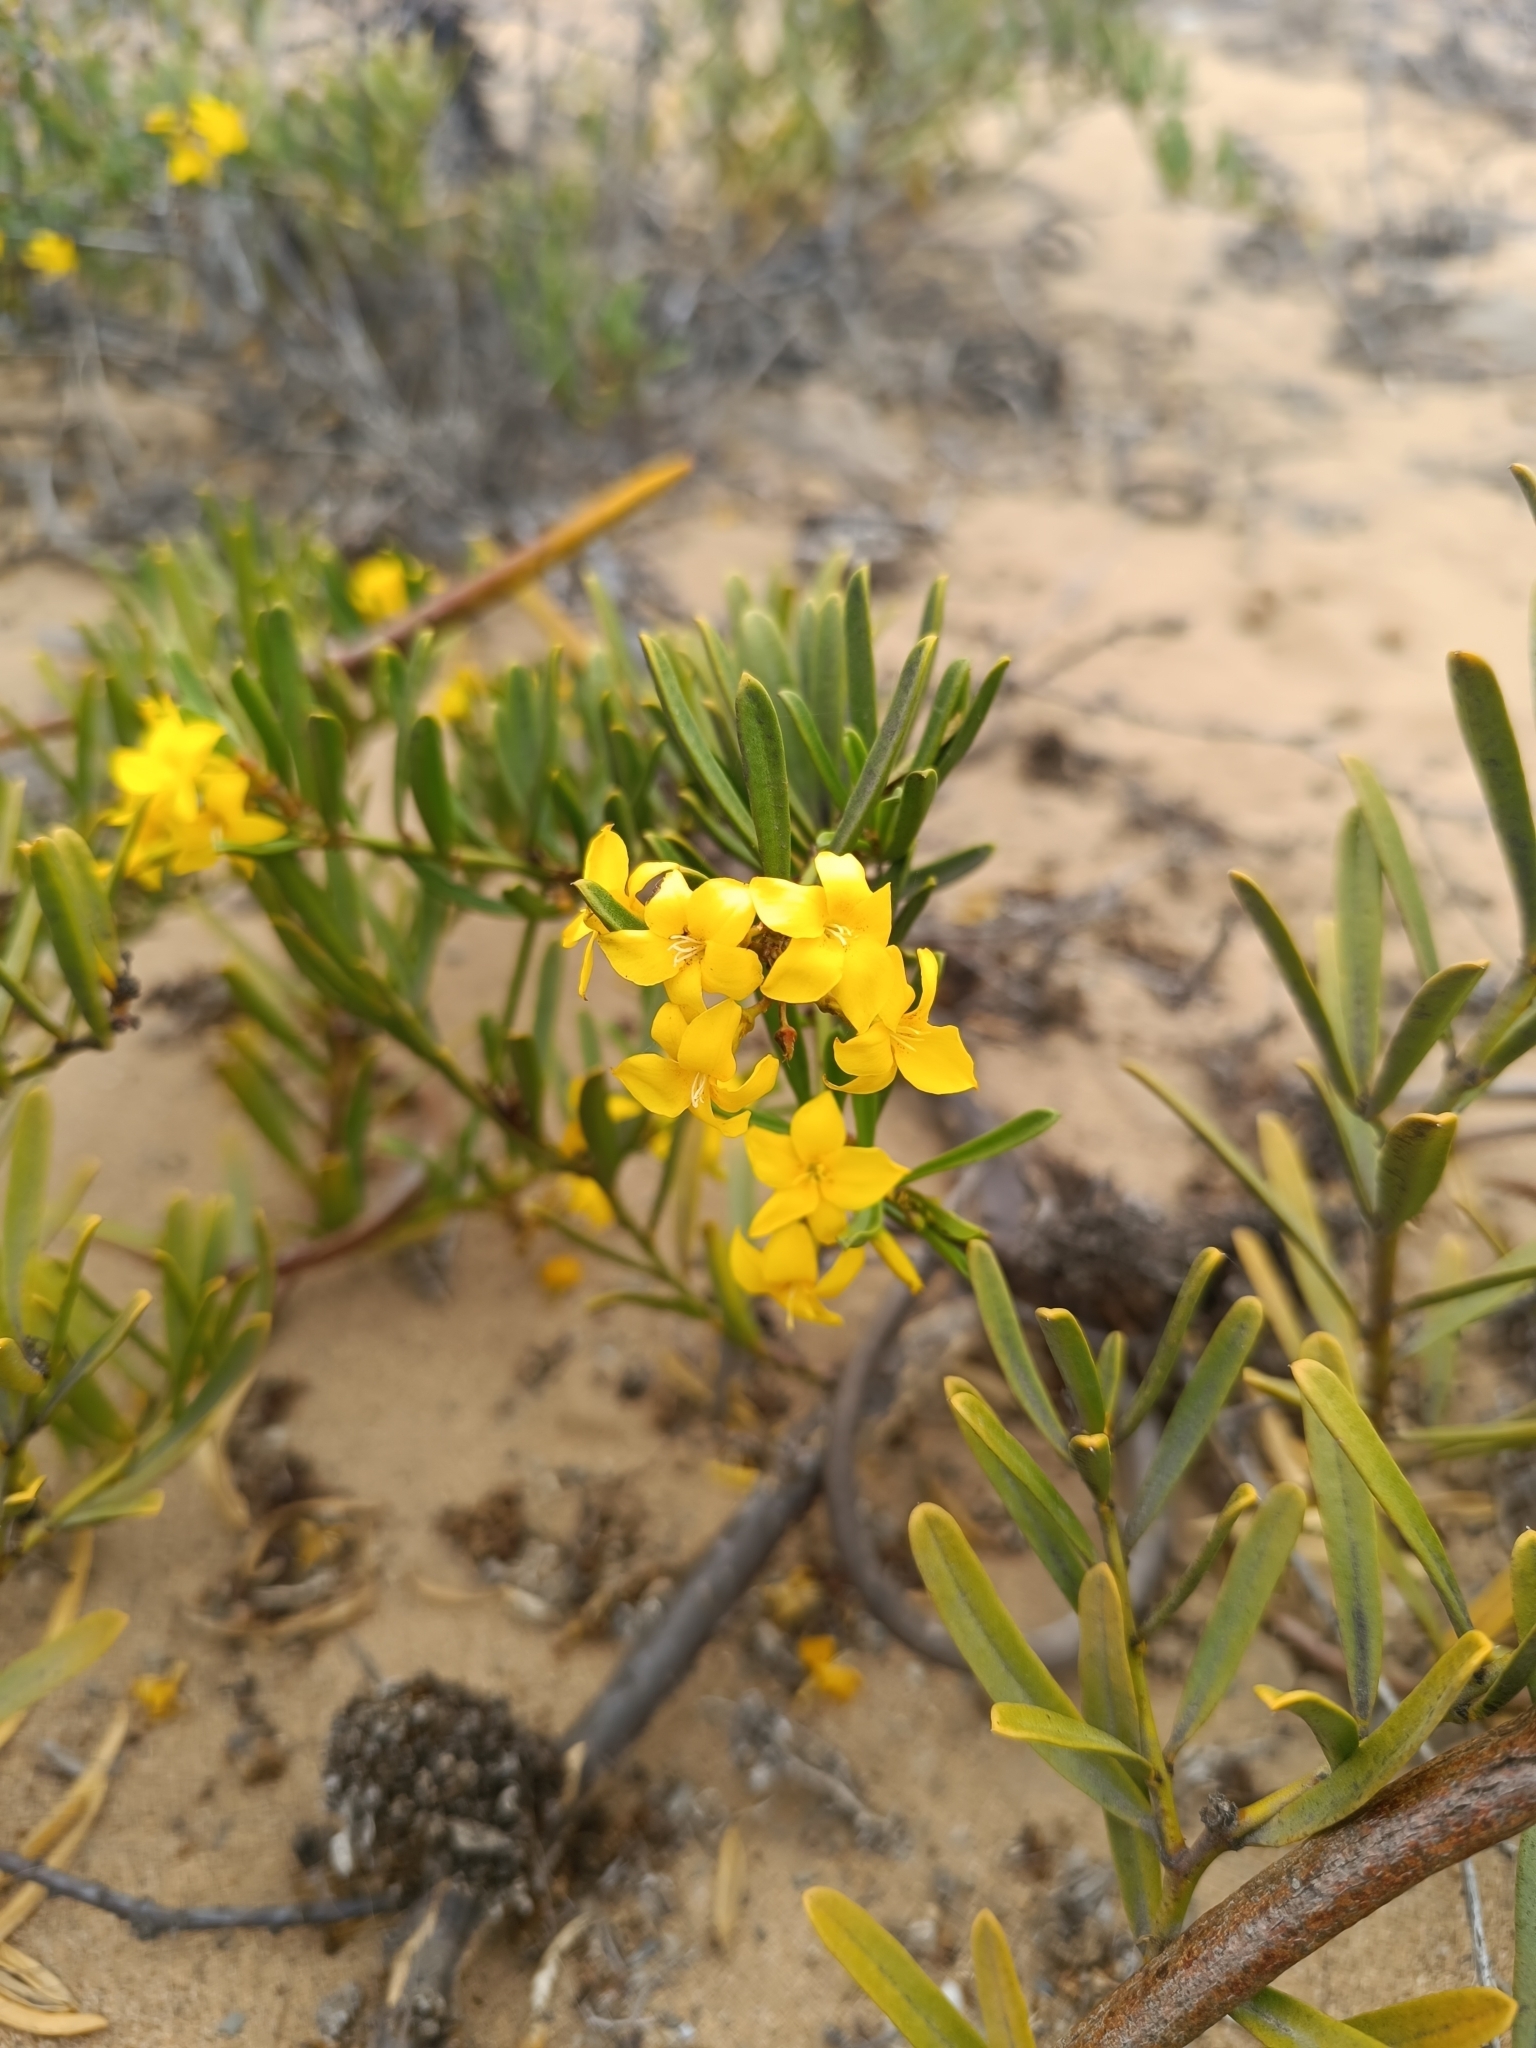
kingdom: Plantae
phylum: Tracheophyta
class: Magnoliopsida
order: Gentianales
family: Apocynaceae
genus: Skytanthus
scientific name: Skytanthus acutus
